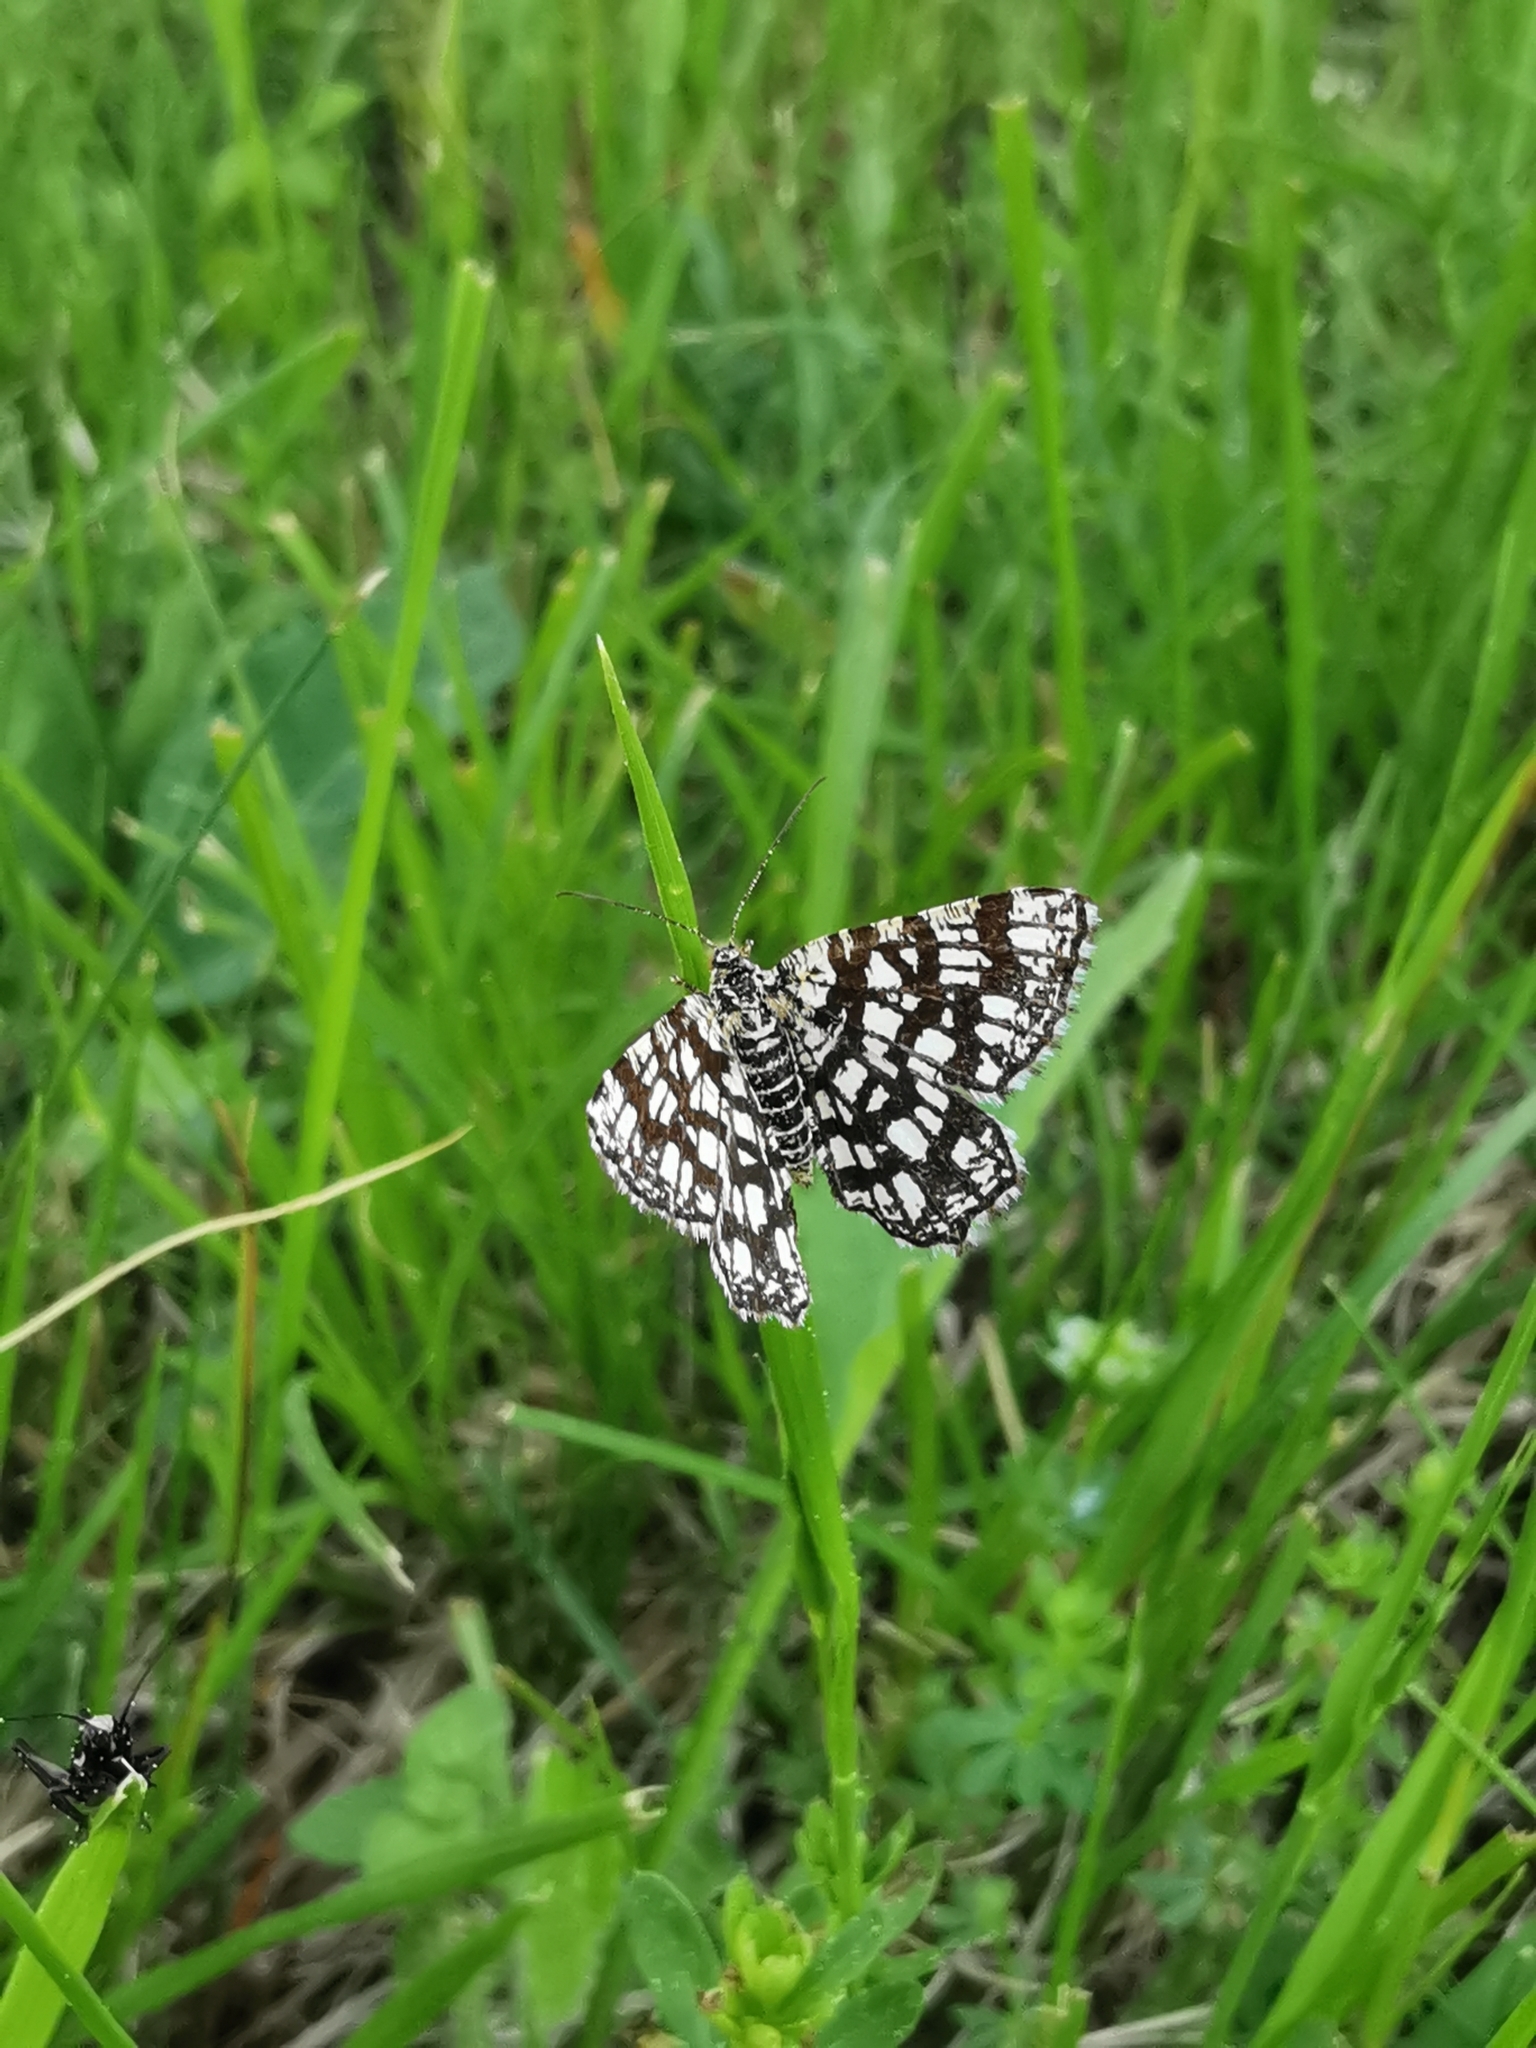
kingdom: Animalia
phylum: Arthropoda
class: Insecta
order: Lepidoptera
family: Geometridae
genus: Chiasmia
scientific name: Chiasmia clathrata
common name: Latticed heath
